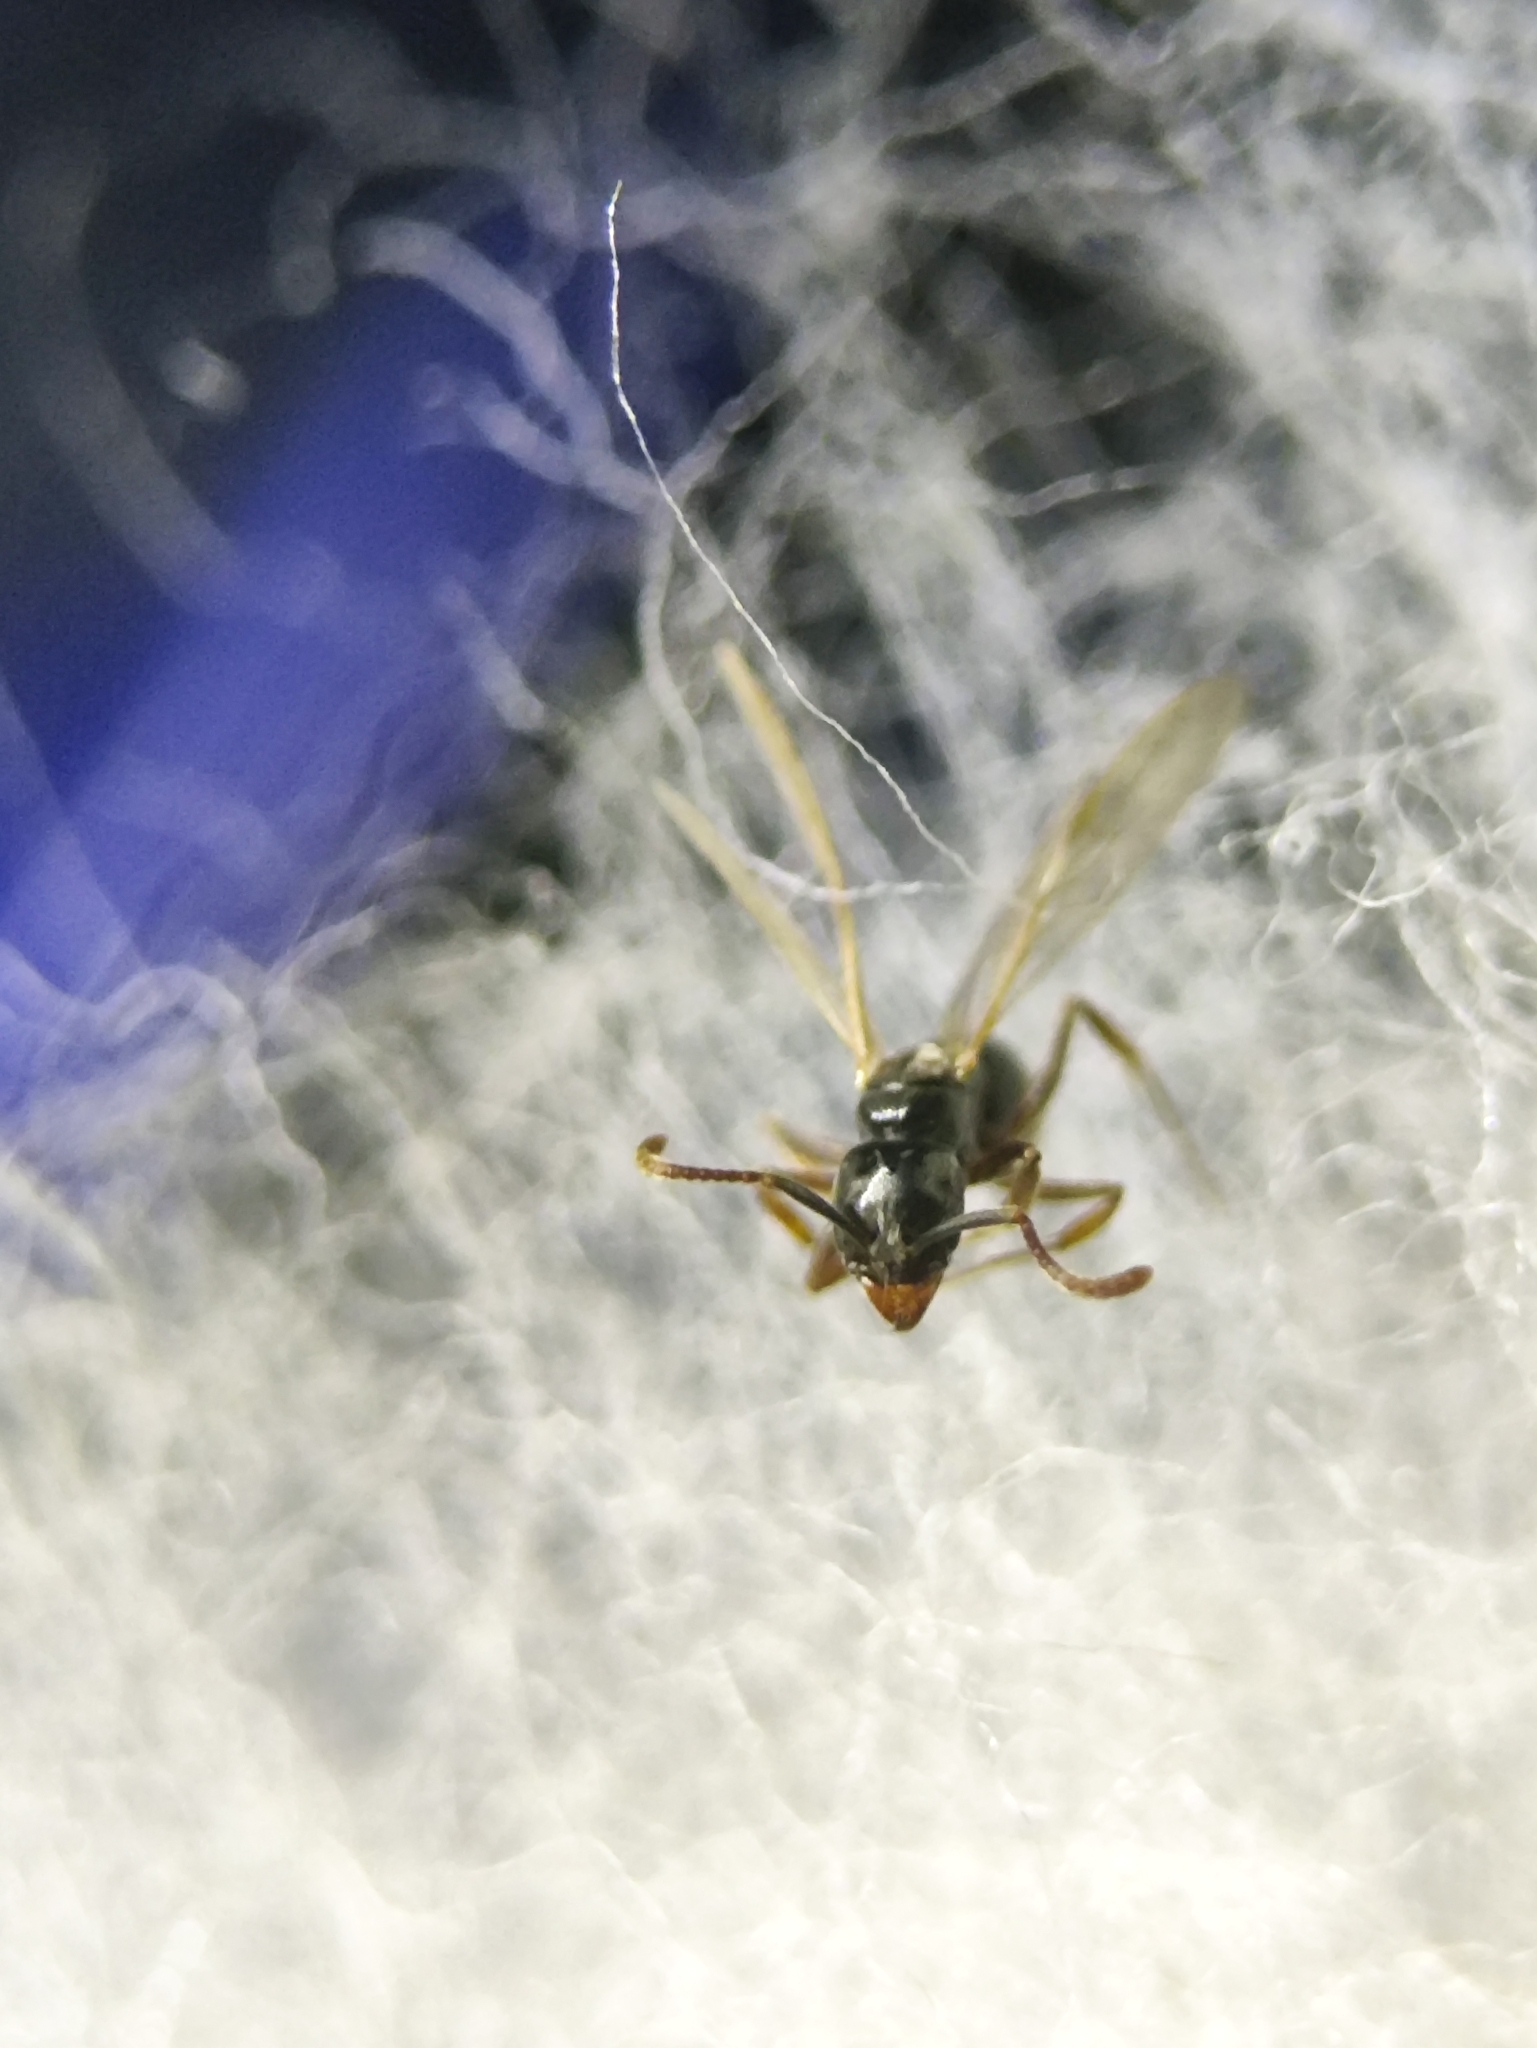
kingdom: Animalia
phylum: Arthropoda
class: Insecta
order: Hymenoptera
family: Formicidae
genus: Brachyponera
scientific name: Brachyponera obscurans
